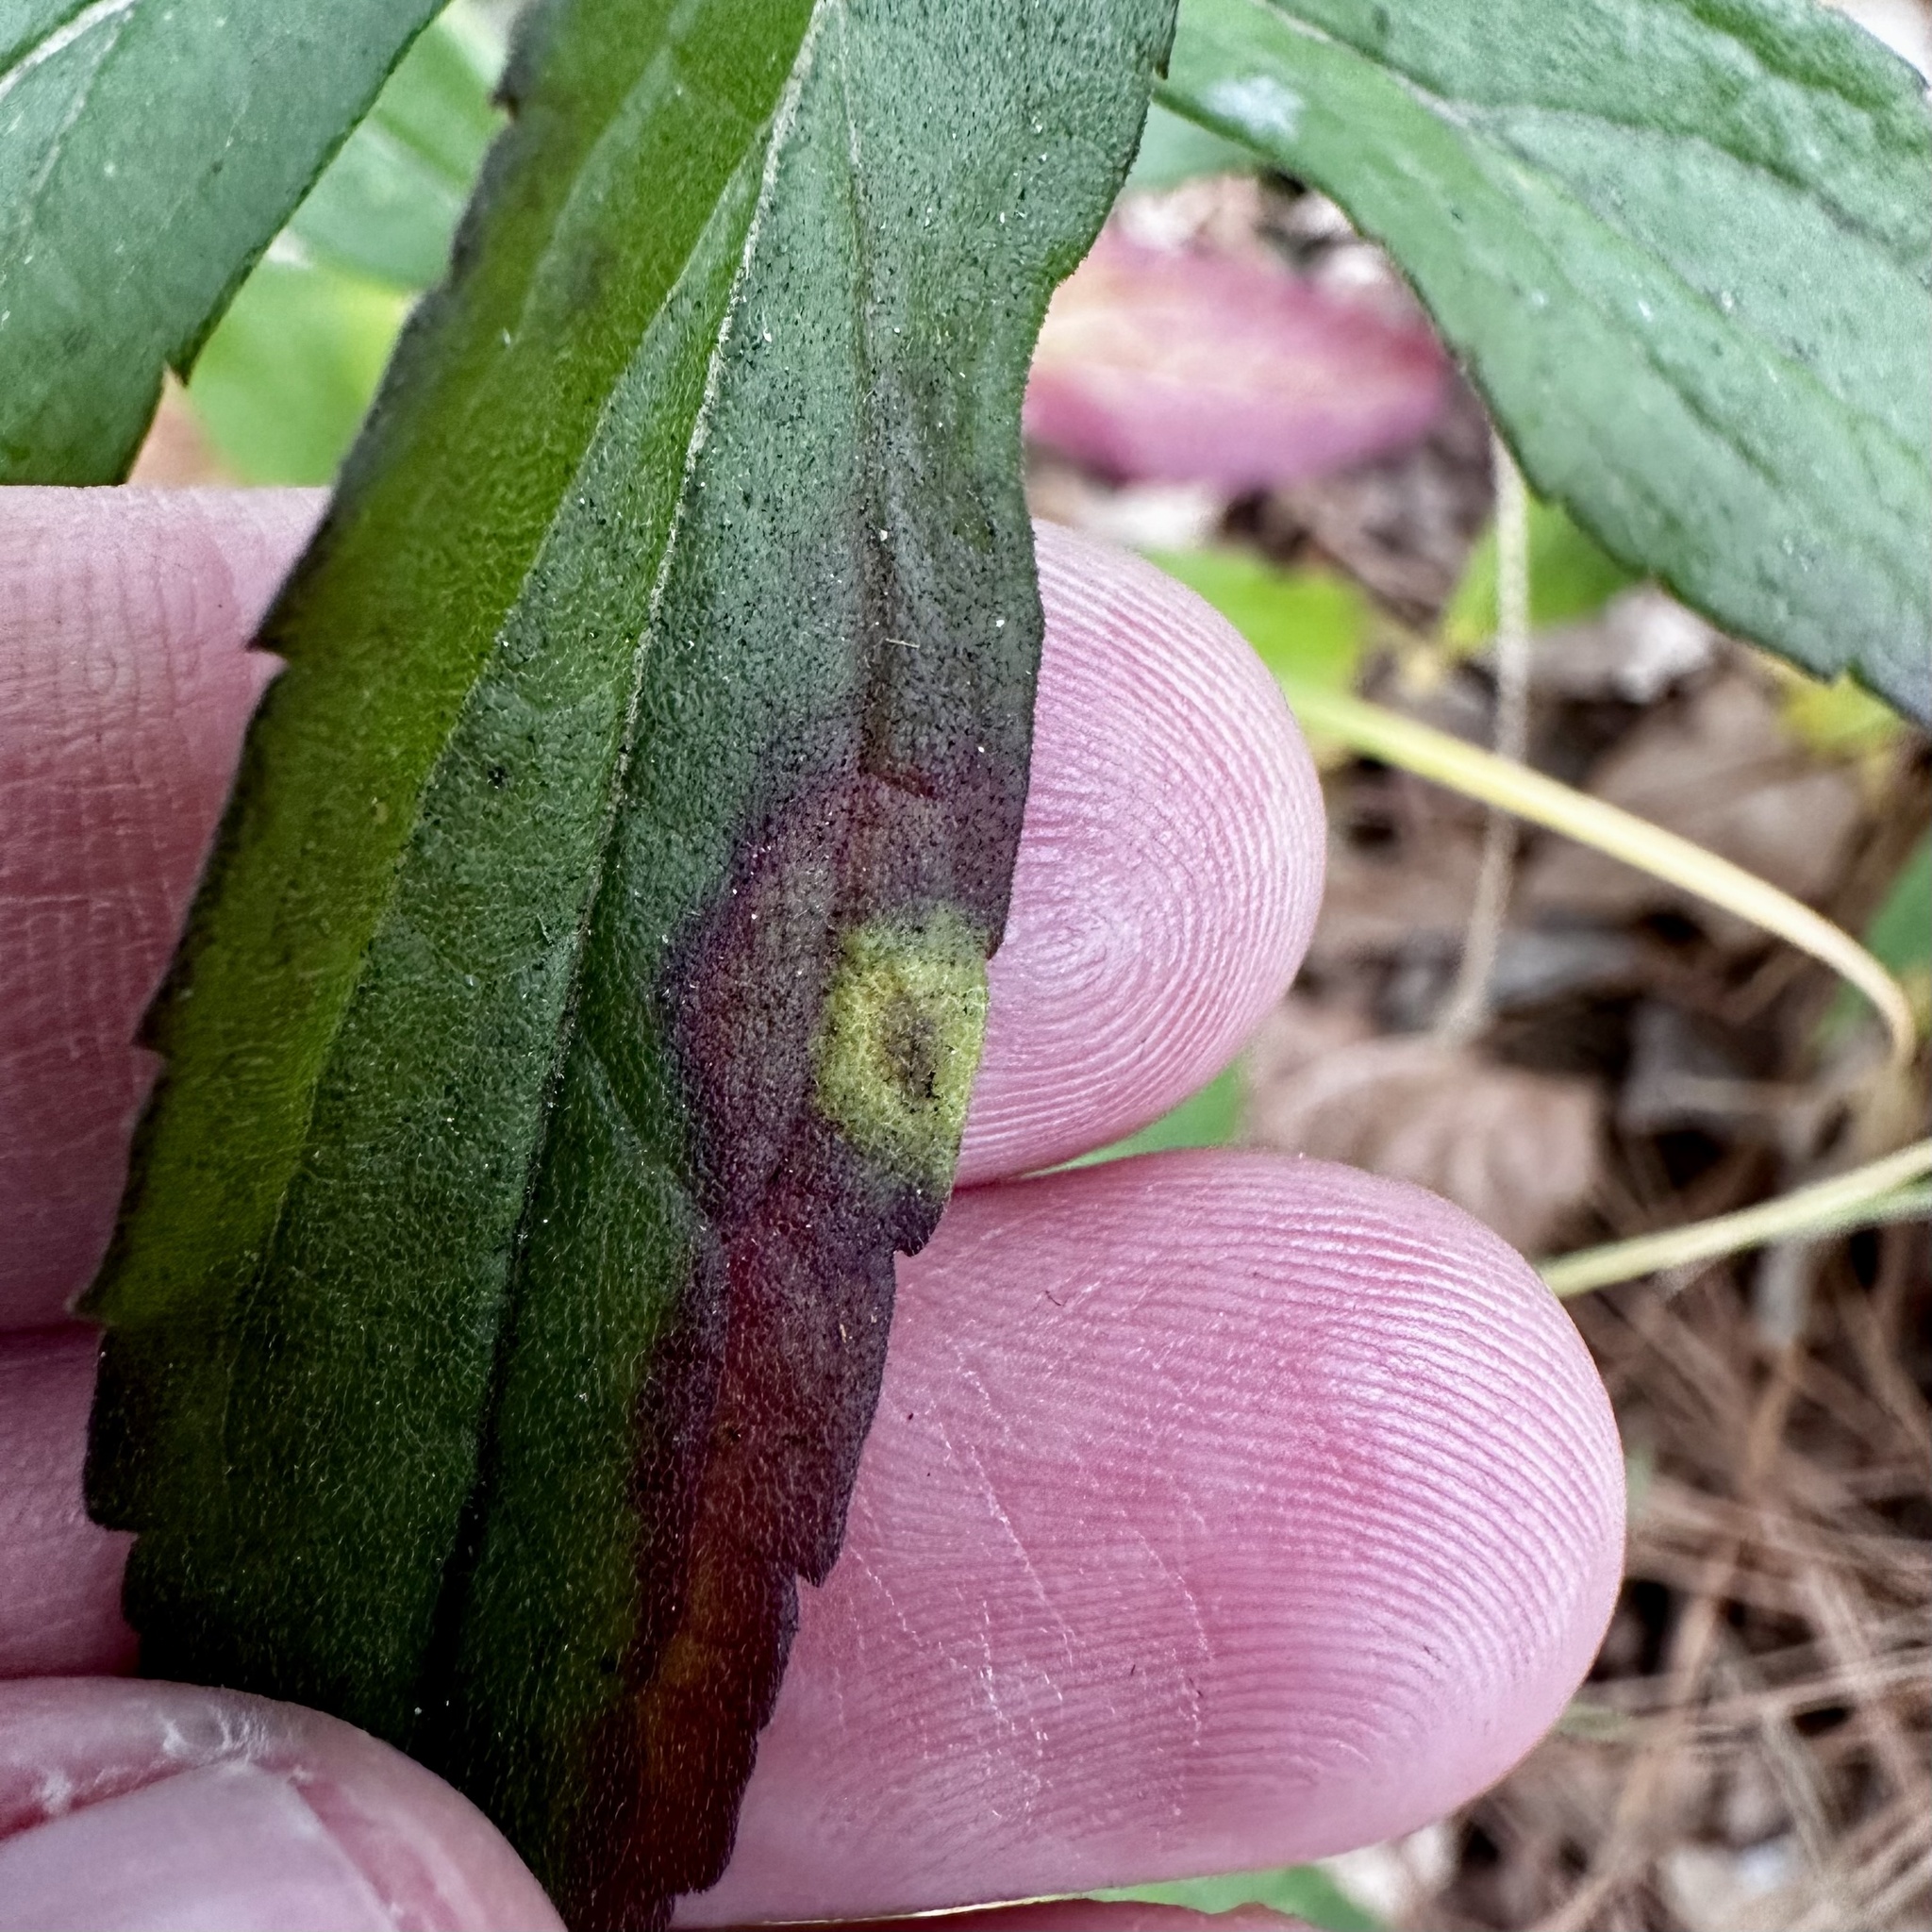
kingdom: Animalia
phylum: Arthropoda
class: Insecta
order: Diptera
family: Cecidomyiidae
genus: Asteromyia
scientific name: Asteromyia carbonifera
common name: Carbonifera goldenrod gall midge
